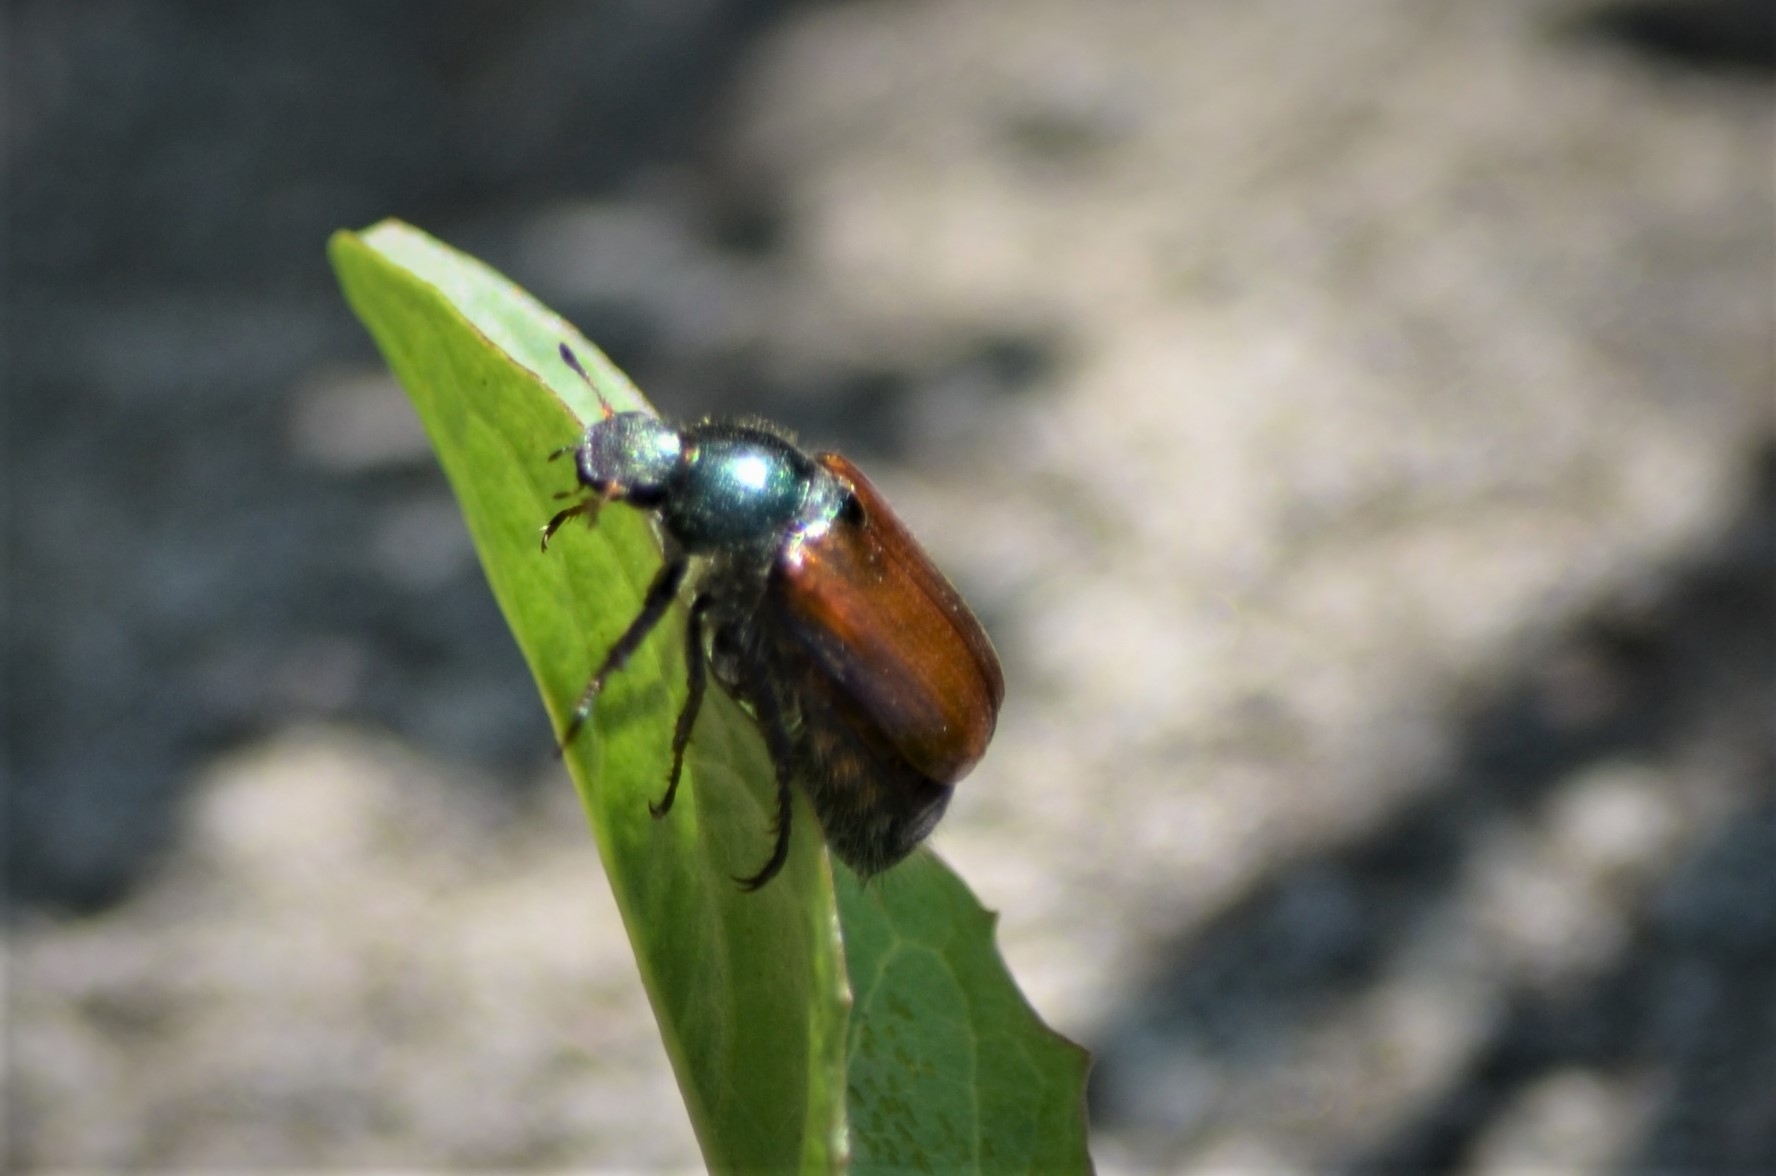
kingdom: Animalia
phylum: Arthropoda
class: Insecta
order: Coleoptera
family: Scarabaeidae
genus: Phyllopertha
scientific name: Phyllopertha horticola
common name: Garden chafer
